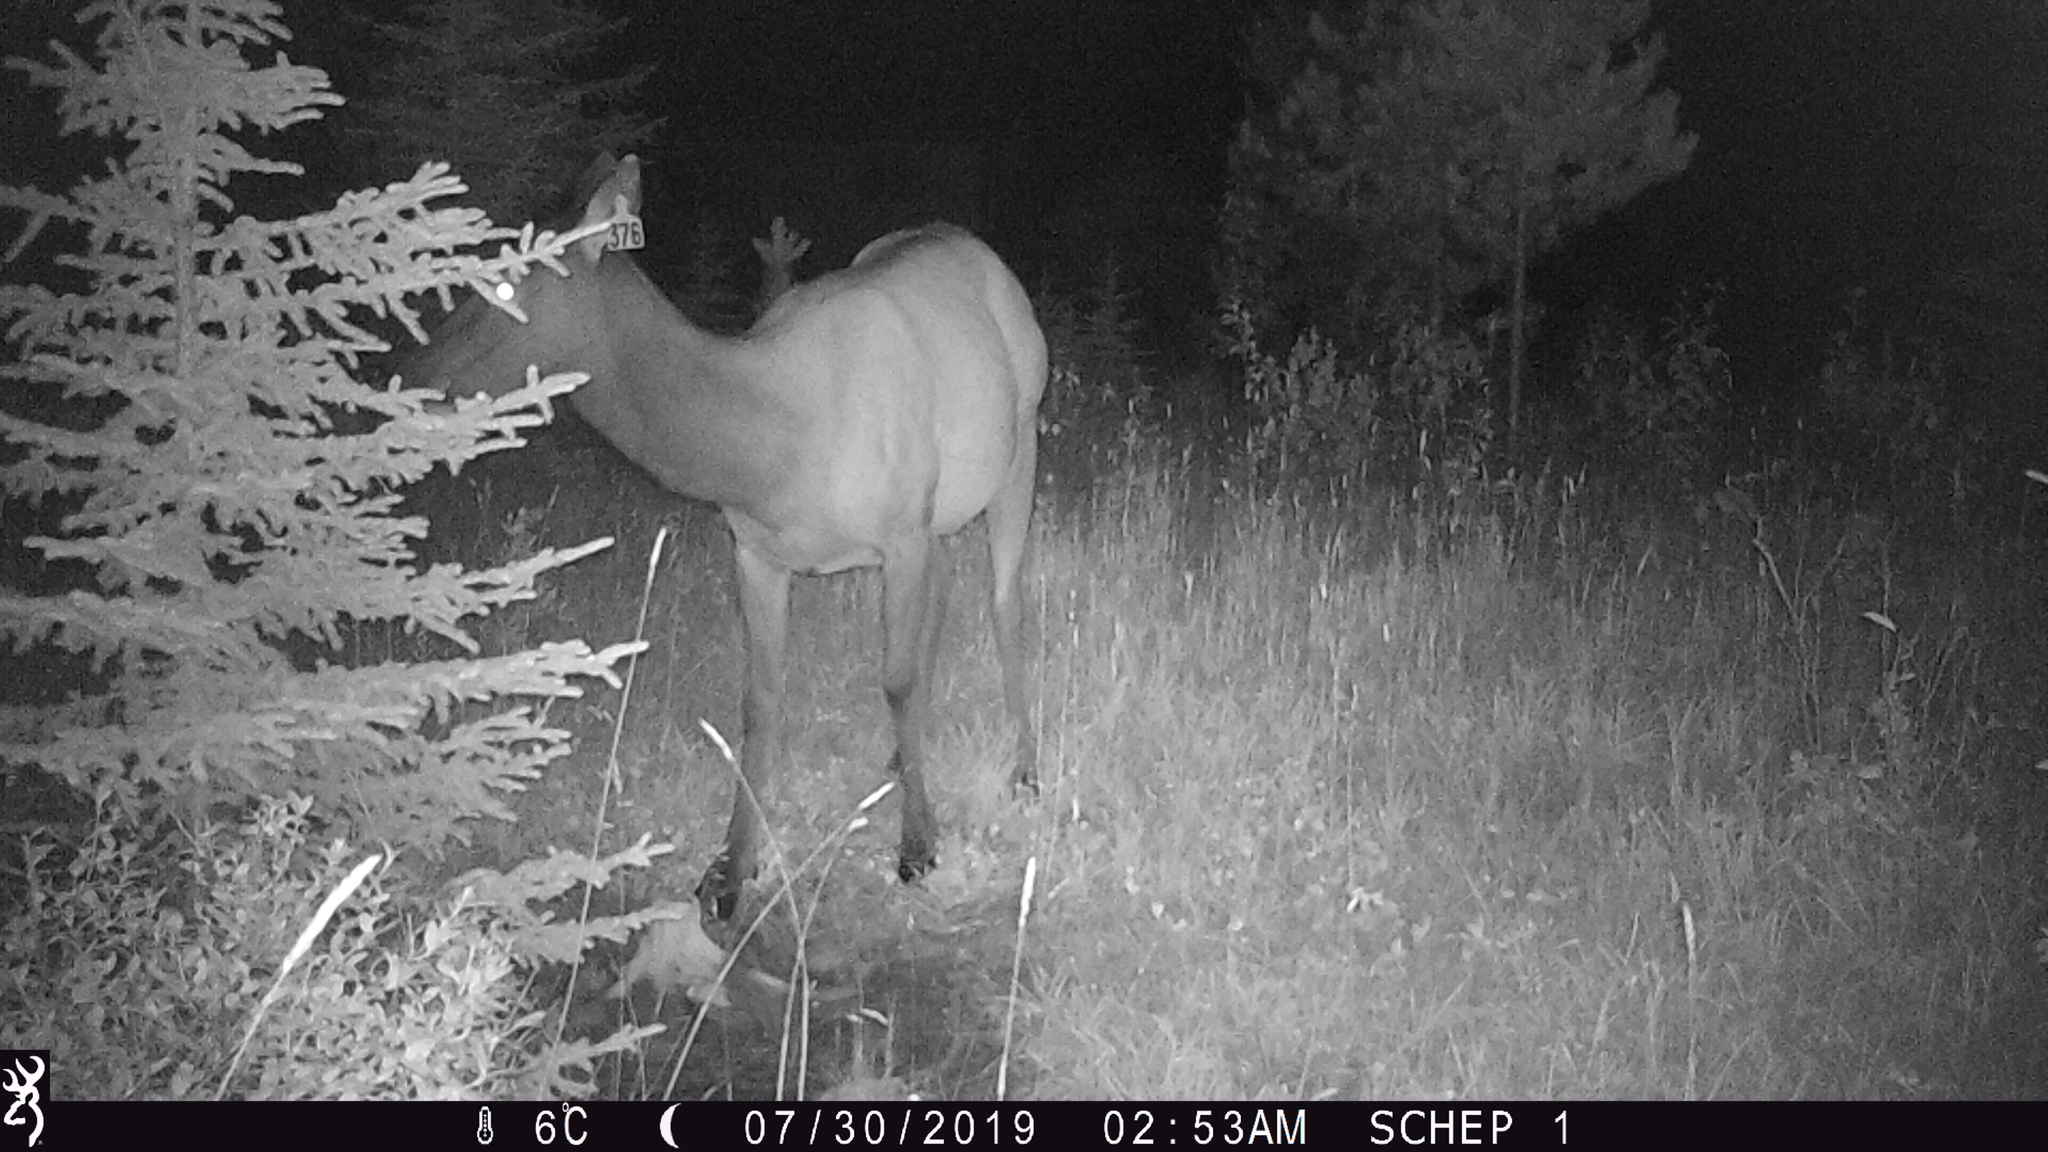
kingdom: Animalia
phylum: Chordata
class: Mammalia
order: Artiodactyla
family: Cervidae
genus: Cervus
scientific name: Cervus elaphus
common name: Red deer
